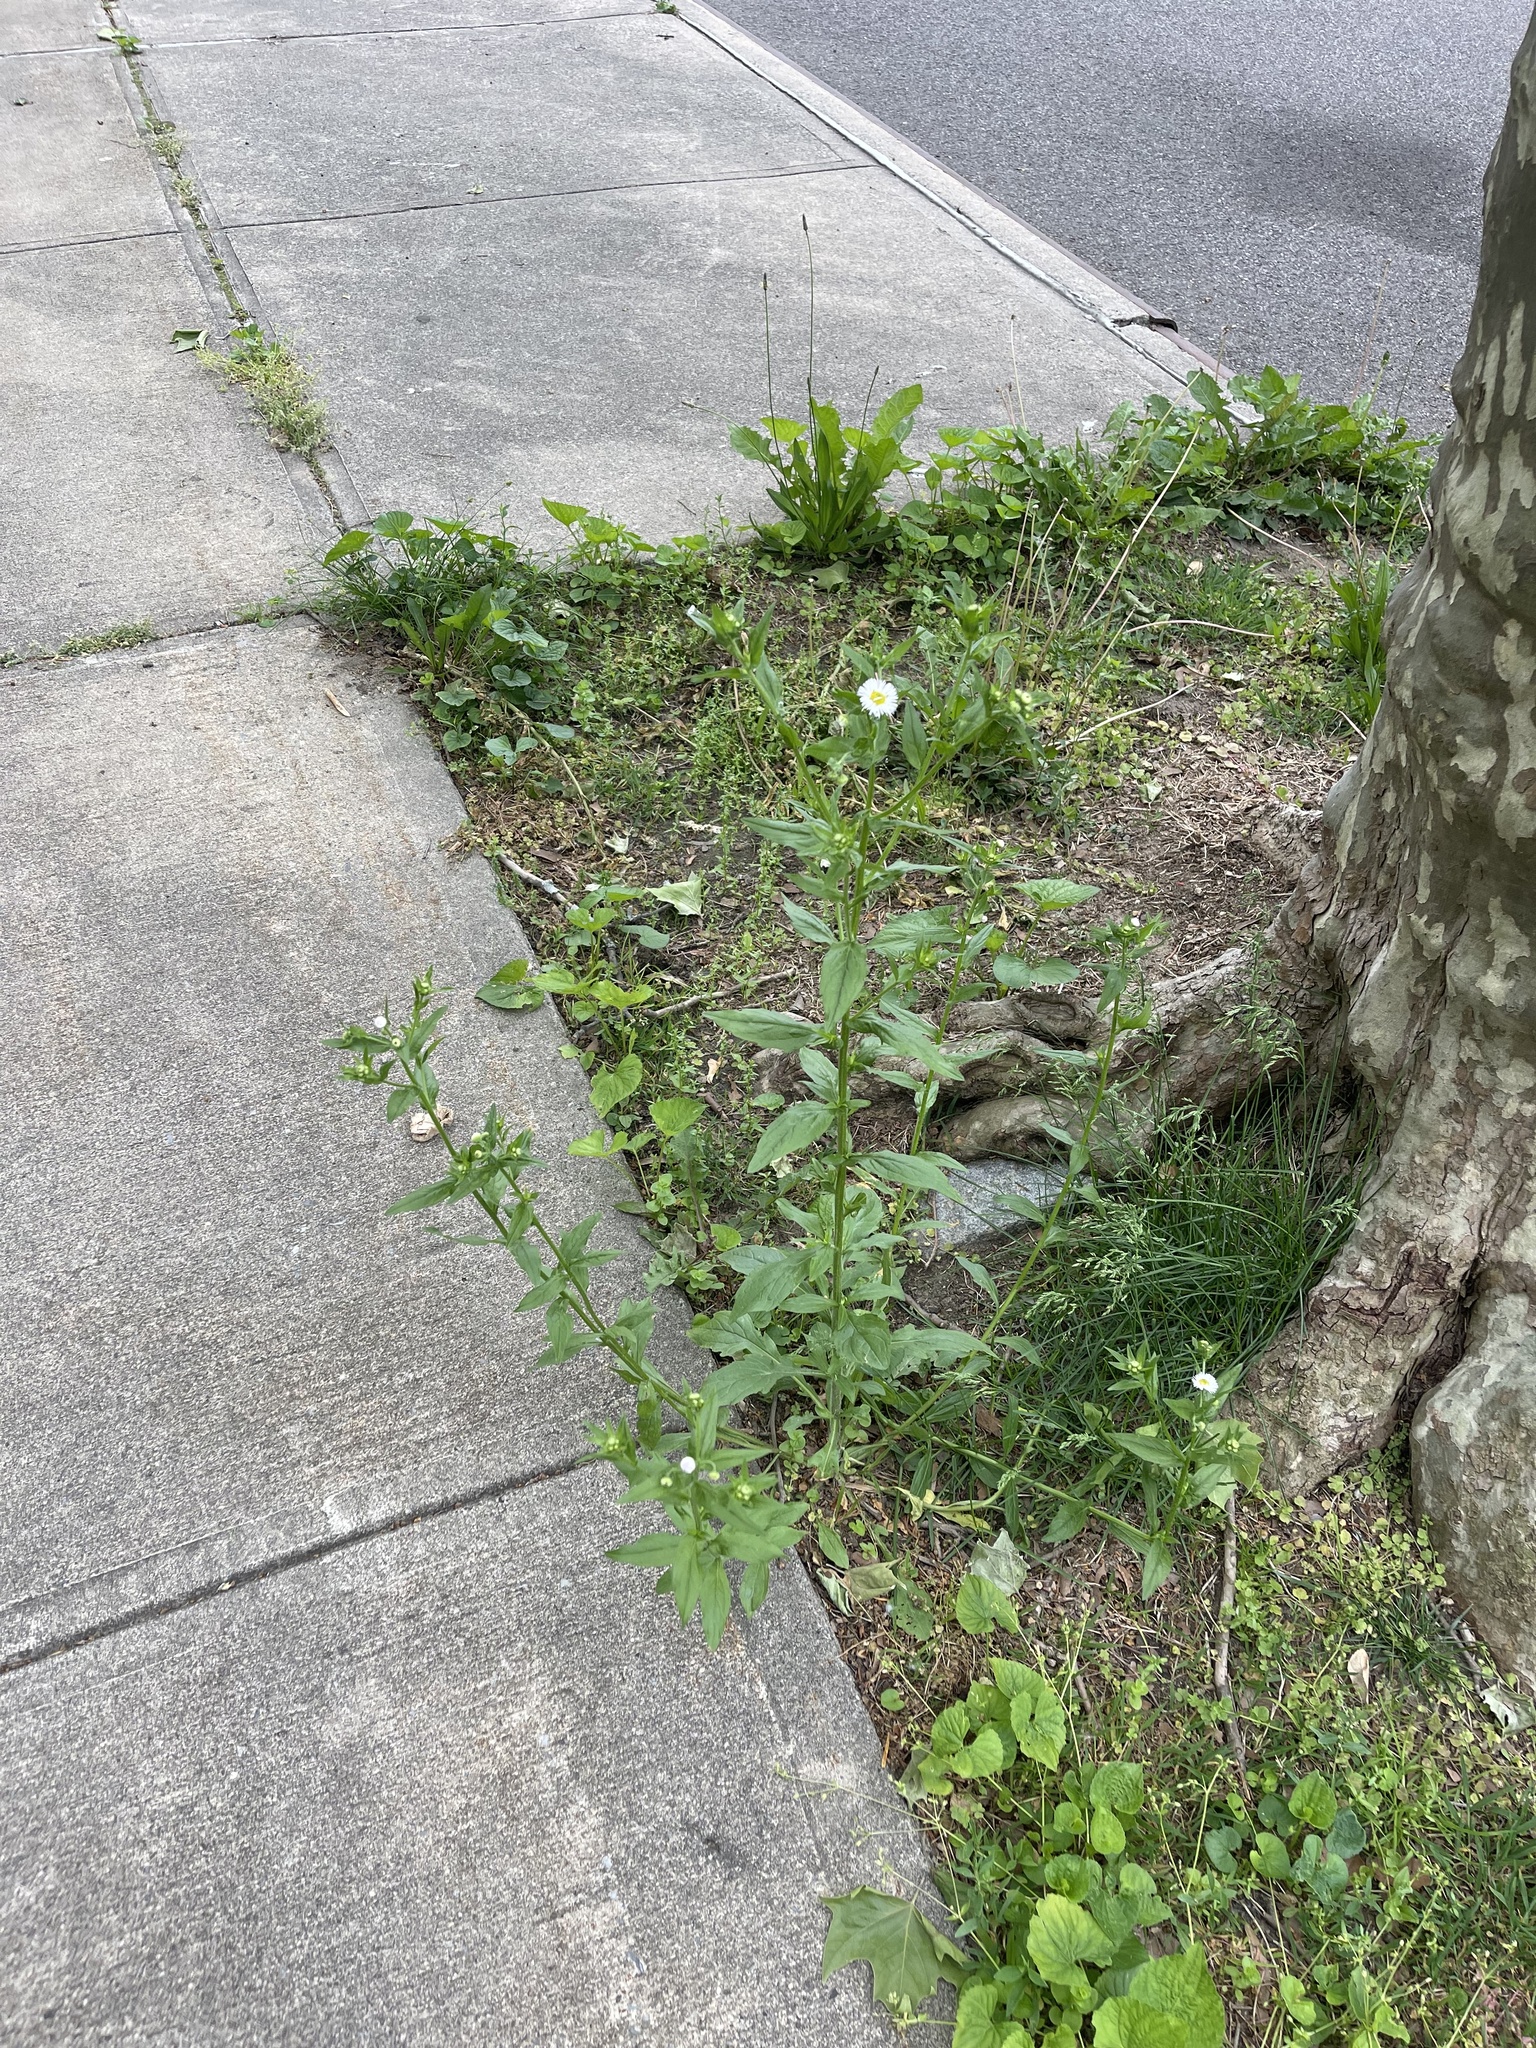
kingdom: Plantae
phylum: Tracheophyta
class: Magnoliopsida
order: Asterales
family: Asteraceae
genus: Erigeron
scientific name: Erigeron annuus
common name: Tall fleabane
